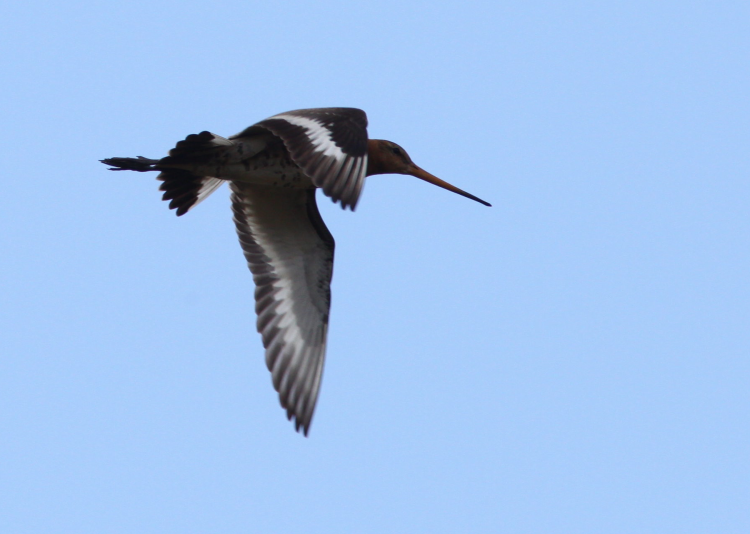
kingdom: Animalia
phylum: Chordata
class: Aves
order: Charadriiformes
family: Scolopacidae
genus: Limosa
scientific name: Limosa limosa
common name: Black-tailed godwit
